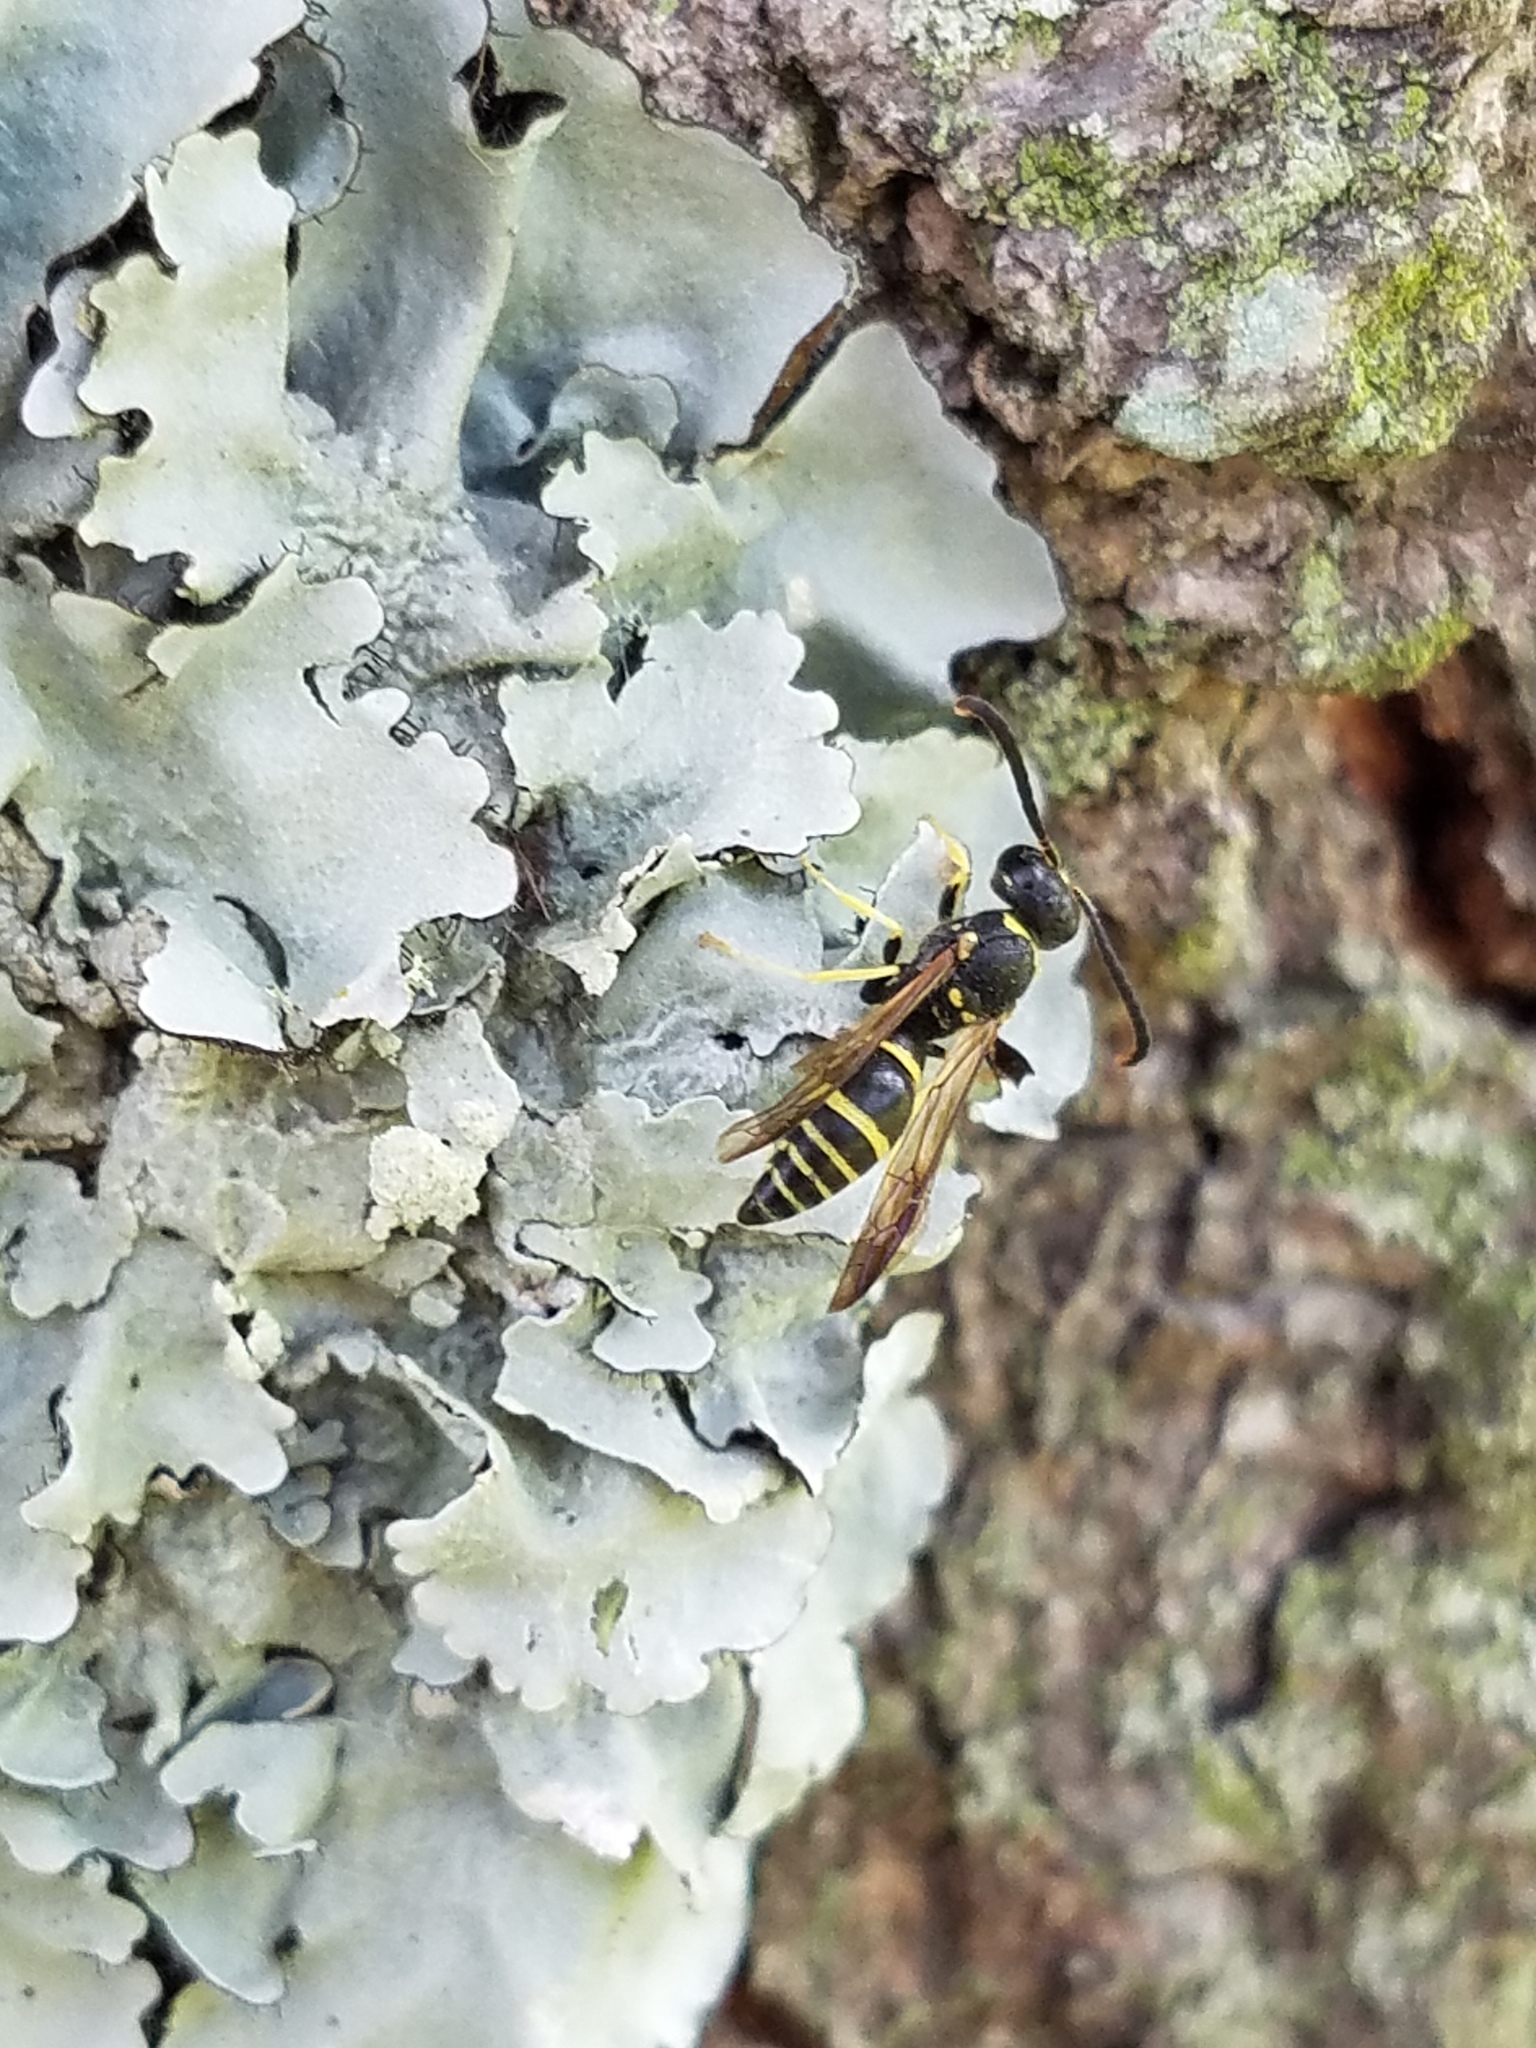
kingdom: Animalia
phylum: Arthropoda
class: Insecta
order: Hymenoptera
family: Vespidae
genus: Ancistrocerus
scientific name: Ancistrocerus adiabatus
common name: Bramble mason wasp
